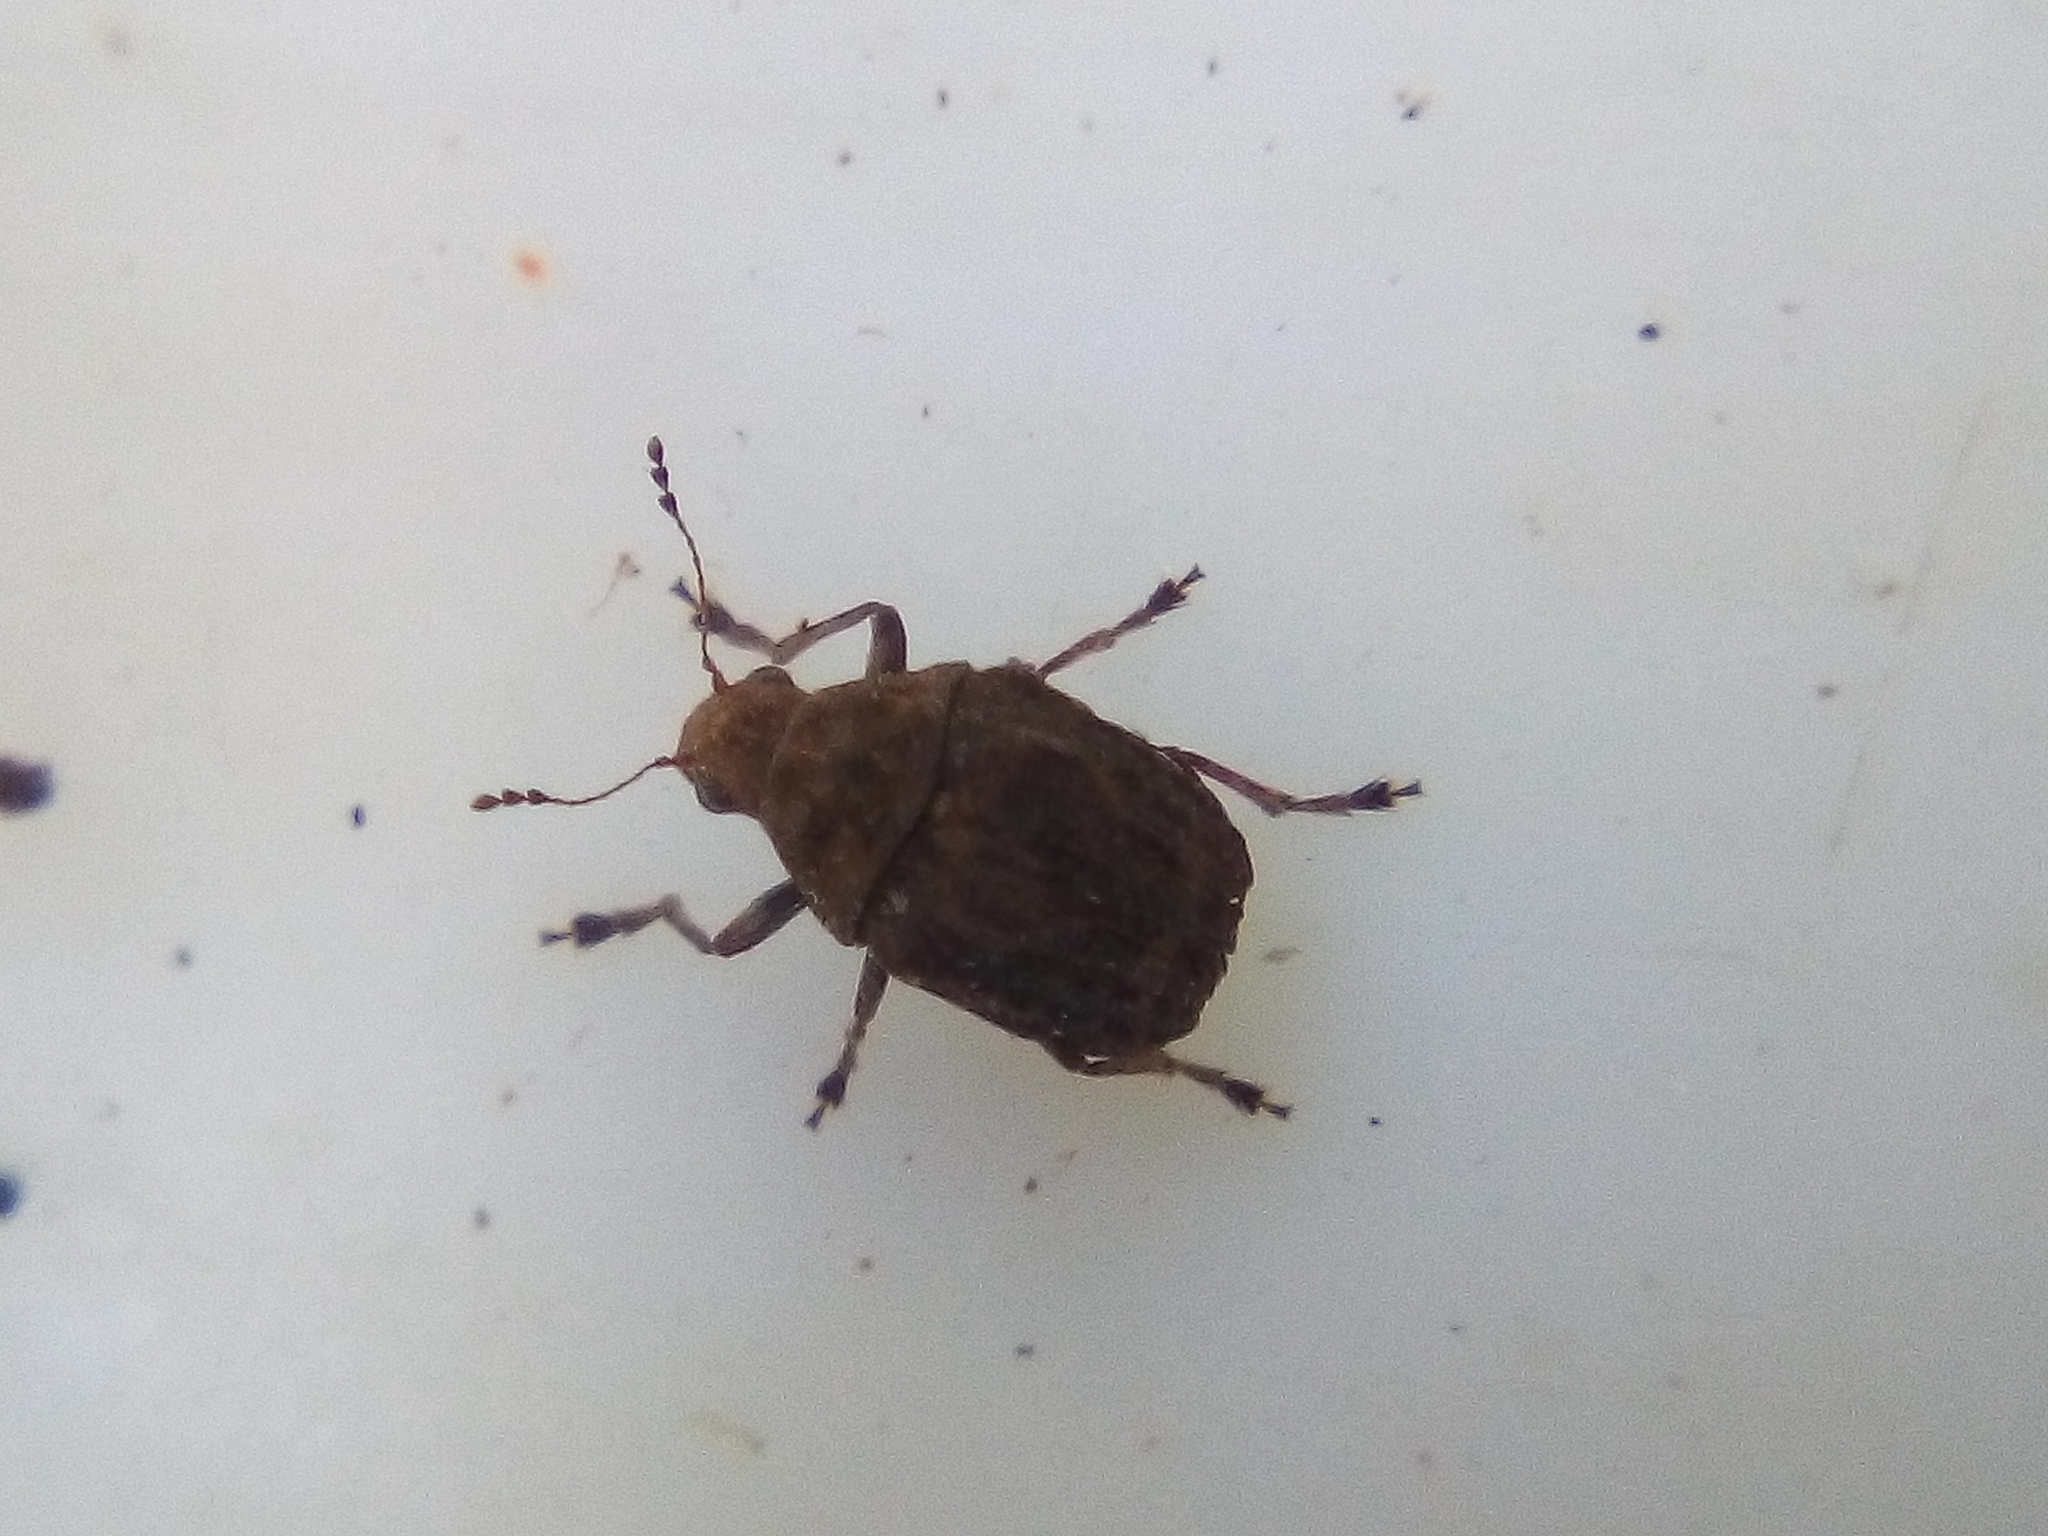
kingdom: Animalia
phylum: Arthropoda
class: Insecta
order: Coleoptera
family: Anthribidae
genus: Araecerus
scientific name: Araecerus
